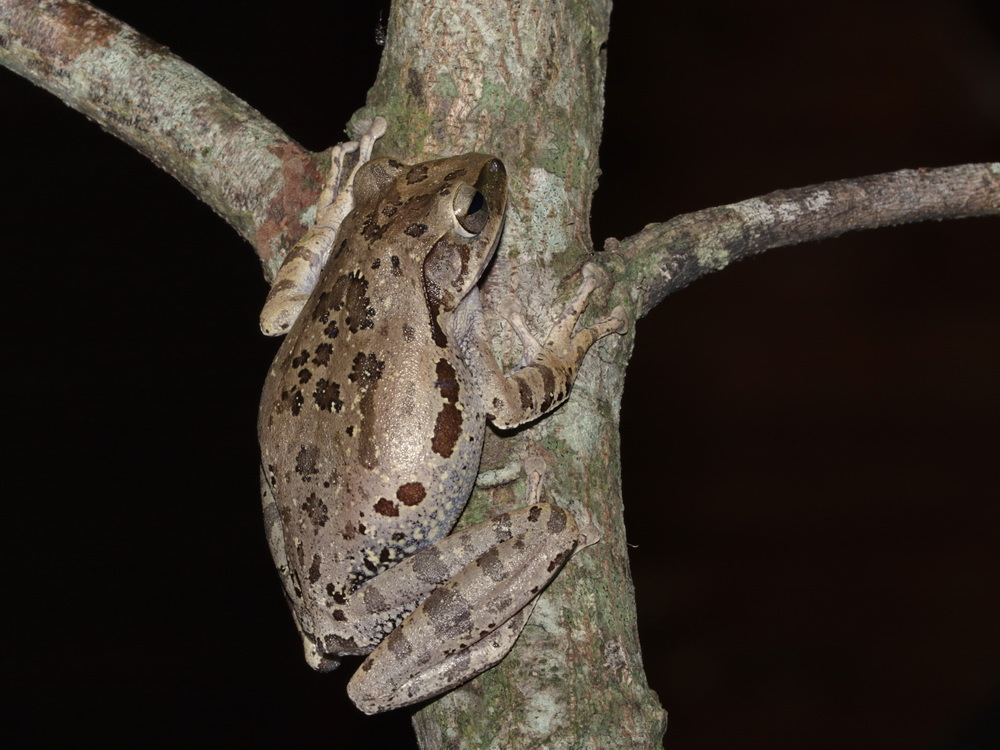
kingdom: Animalia
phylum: Chordata
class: Amphibia
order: Anura
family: Rhacophoridae
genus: Polypedates
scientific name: Polypedates megacephalus
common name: Hong kong whipping frog
